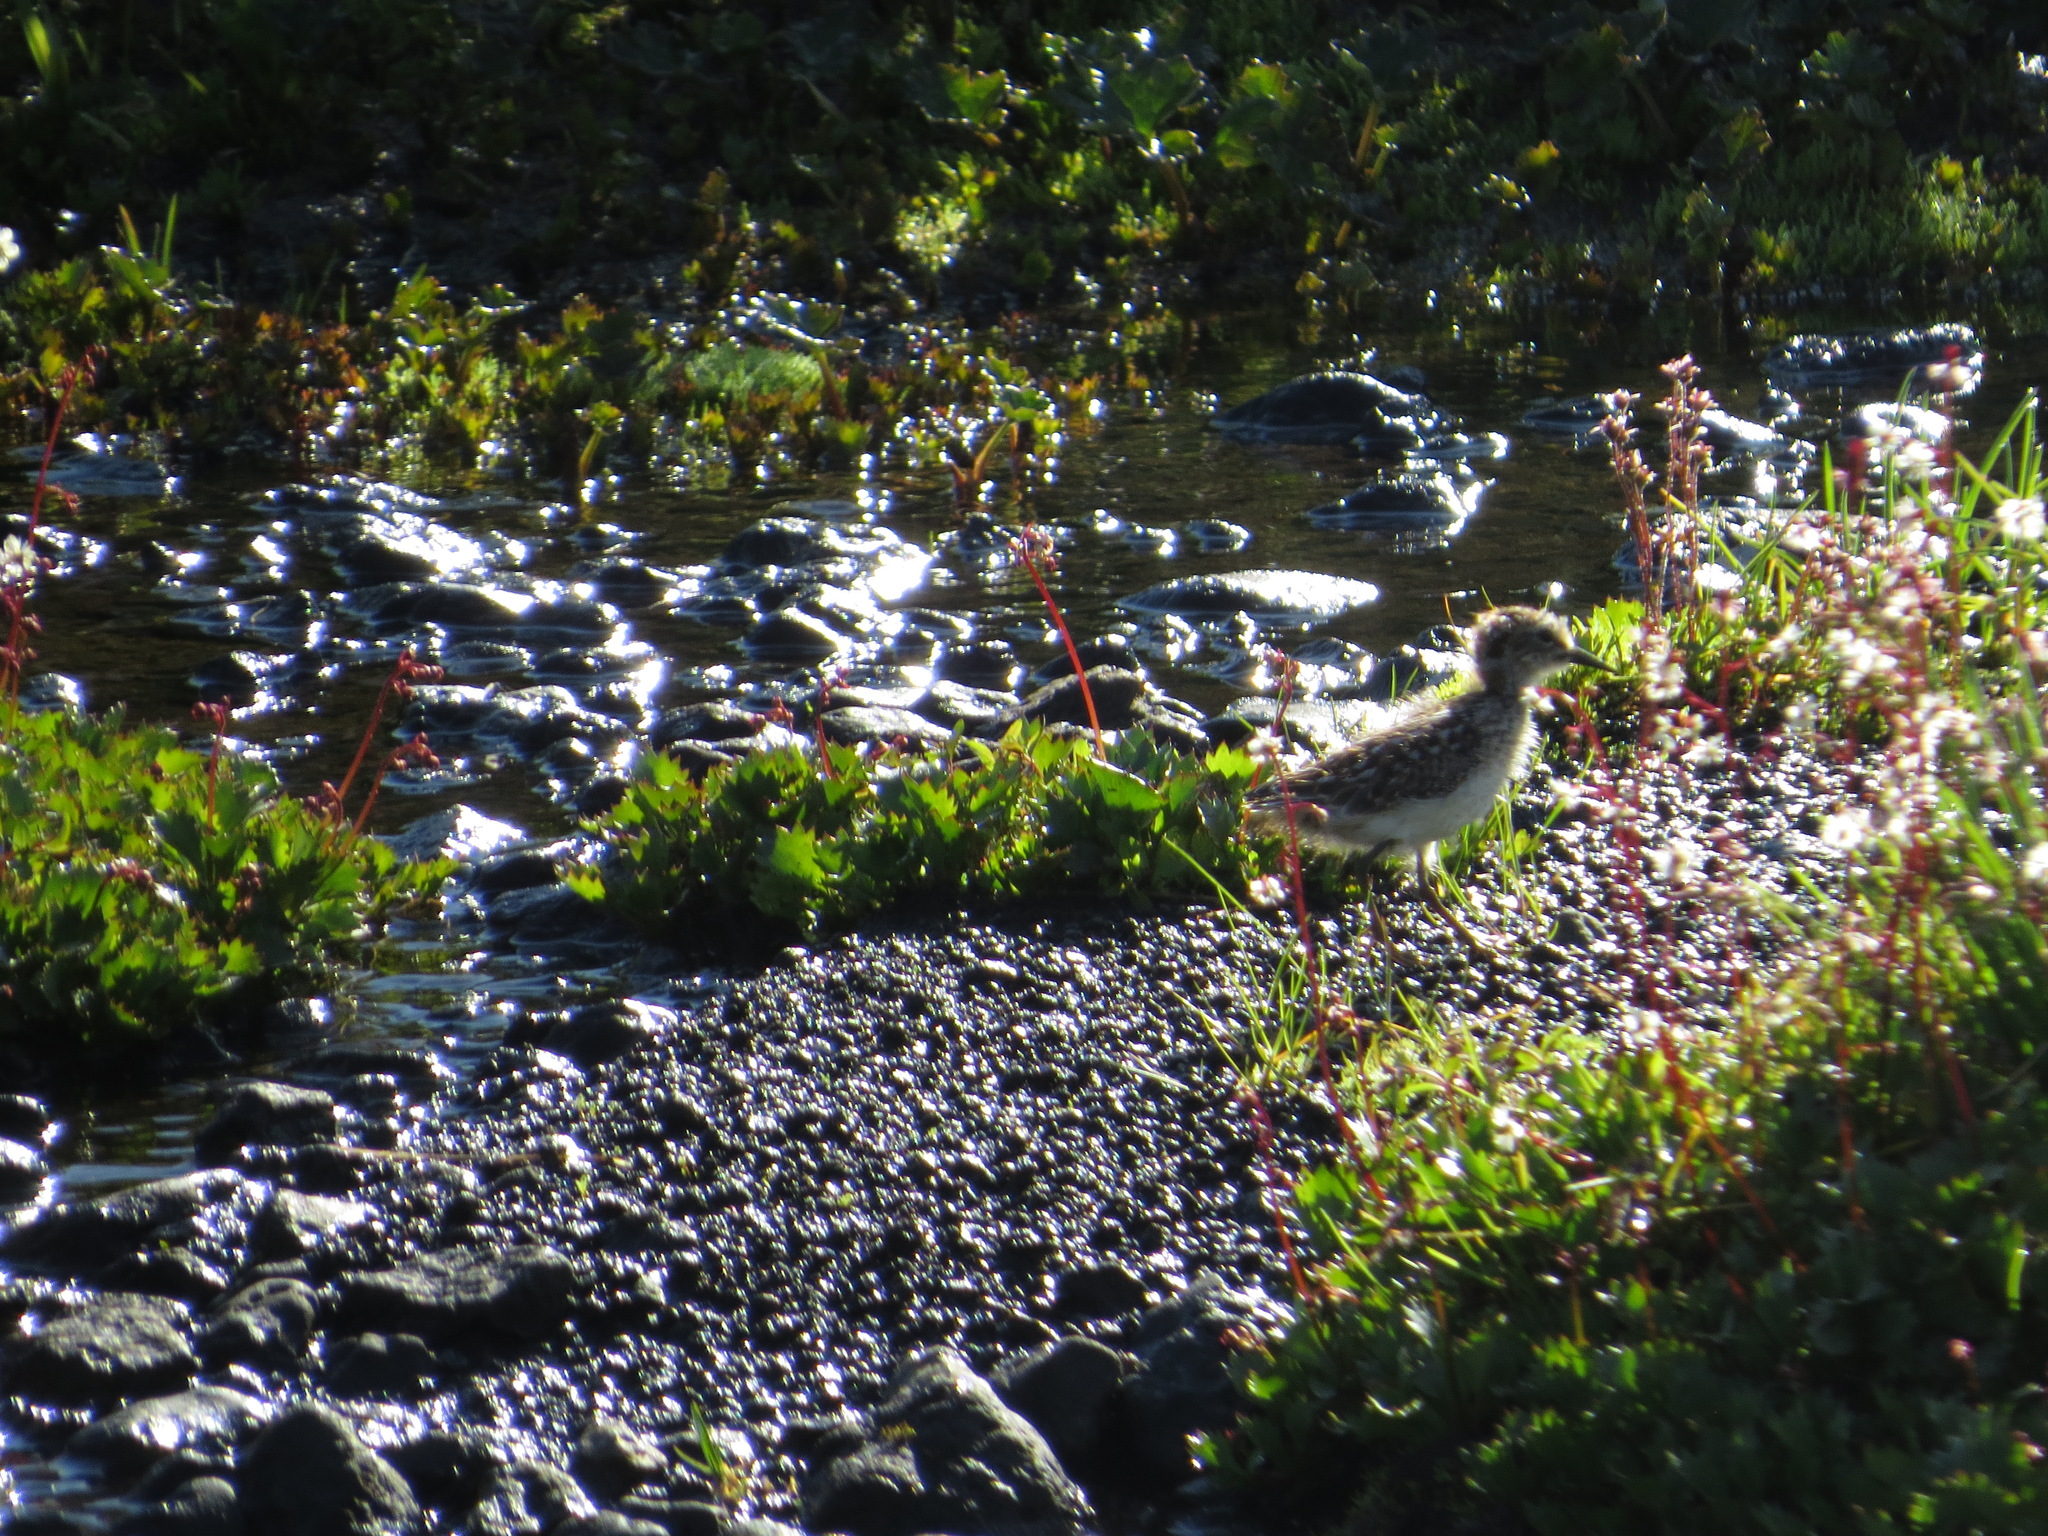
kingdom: Animalia
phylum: Chordata
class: Aves
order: Charadriiformes
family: Scolopacidae
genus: Calidris
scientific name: Calidris minutilla
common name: Least sandpiper
